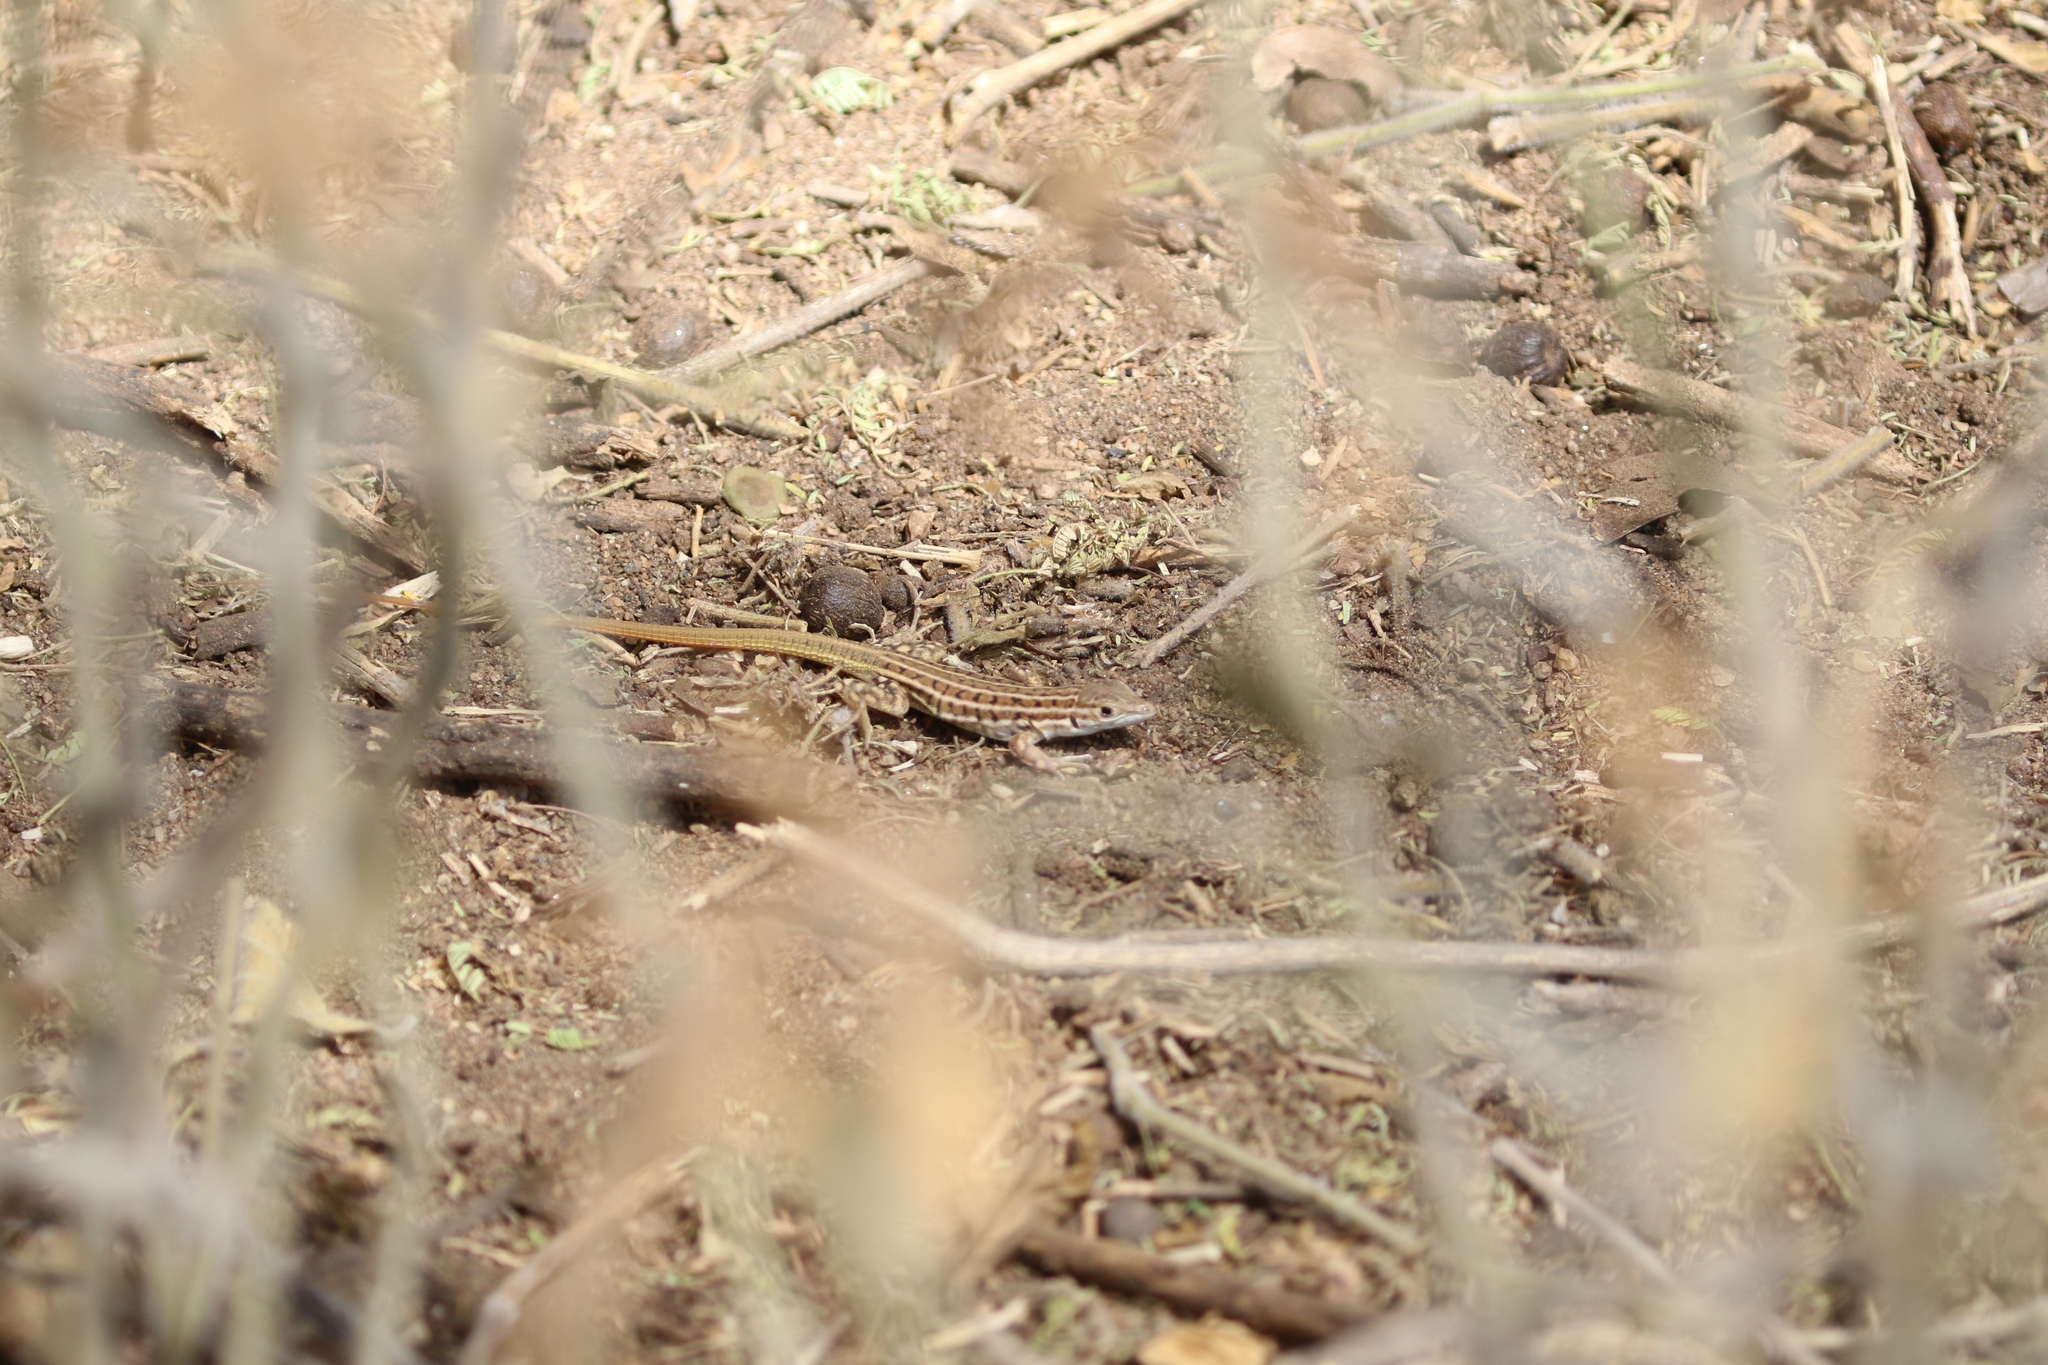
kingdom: Animalia
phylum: Chordata
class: Squamata
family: Lacertidae
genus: Heliobolus
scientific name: Heliobolus spekii
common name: Speke’s sand lizard
